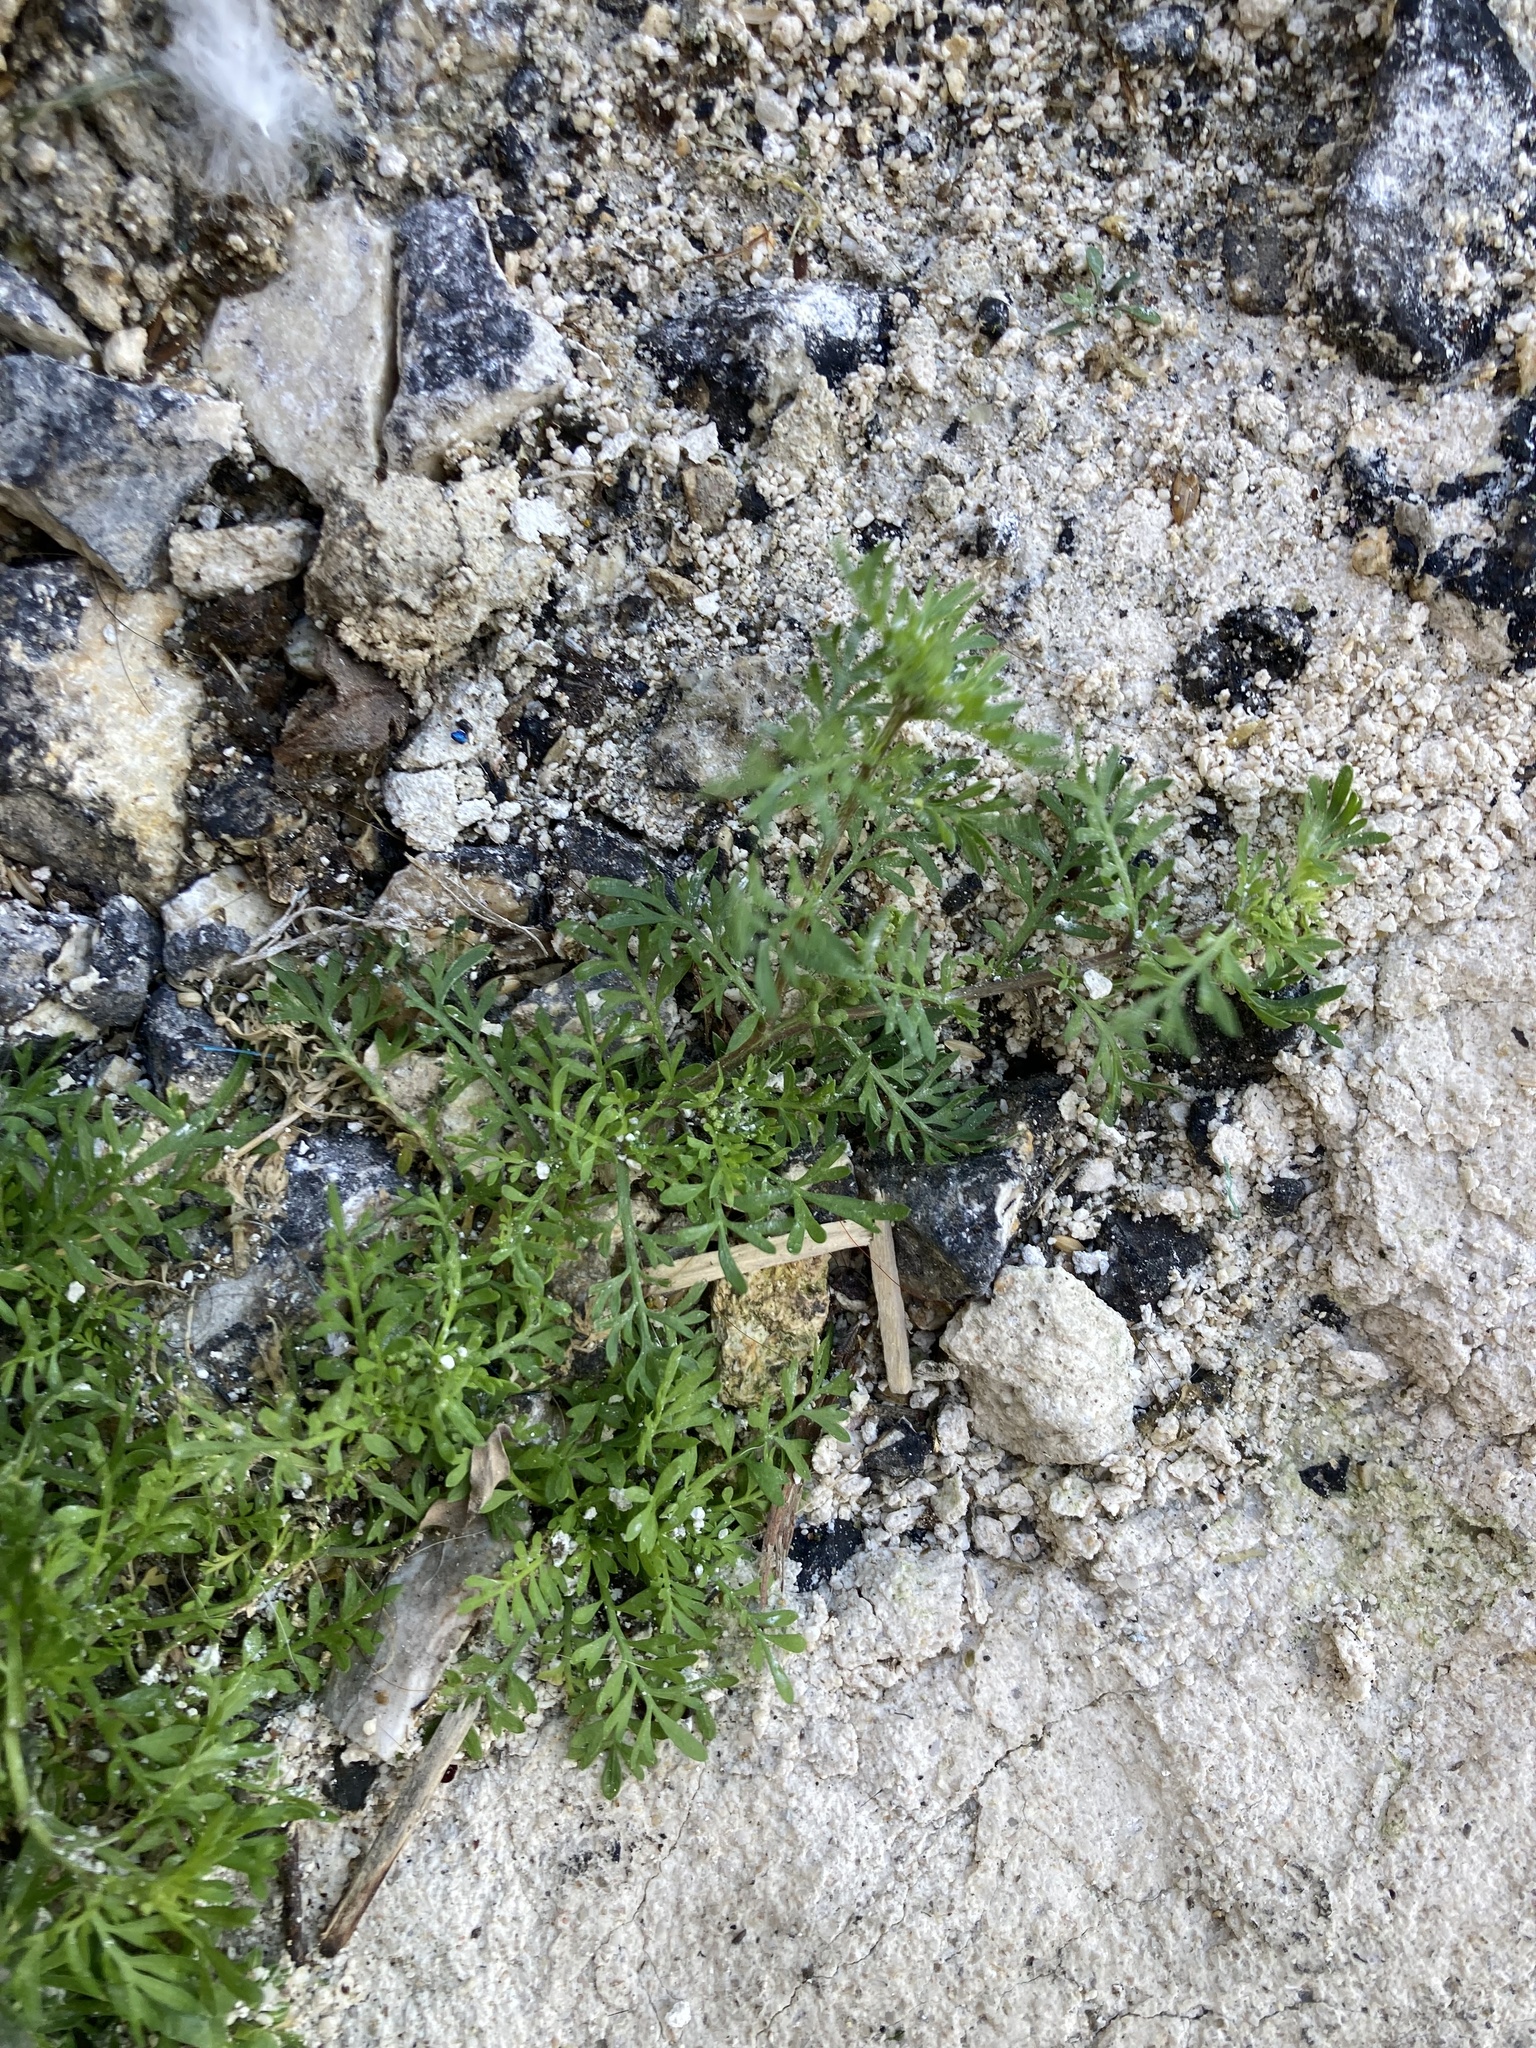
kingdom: Plantae
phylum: Tracheophyta
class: Magnoliopsida
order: Brassicales
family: Brassicaceae
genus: Lepidium
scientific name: Lepidium didymum
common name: Lesser swinecress
